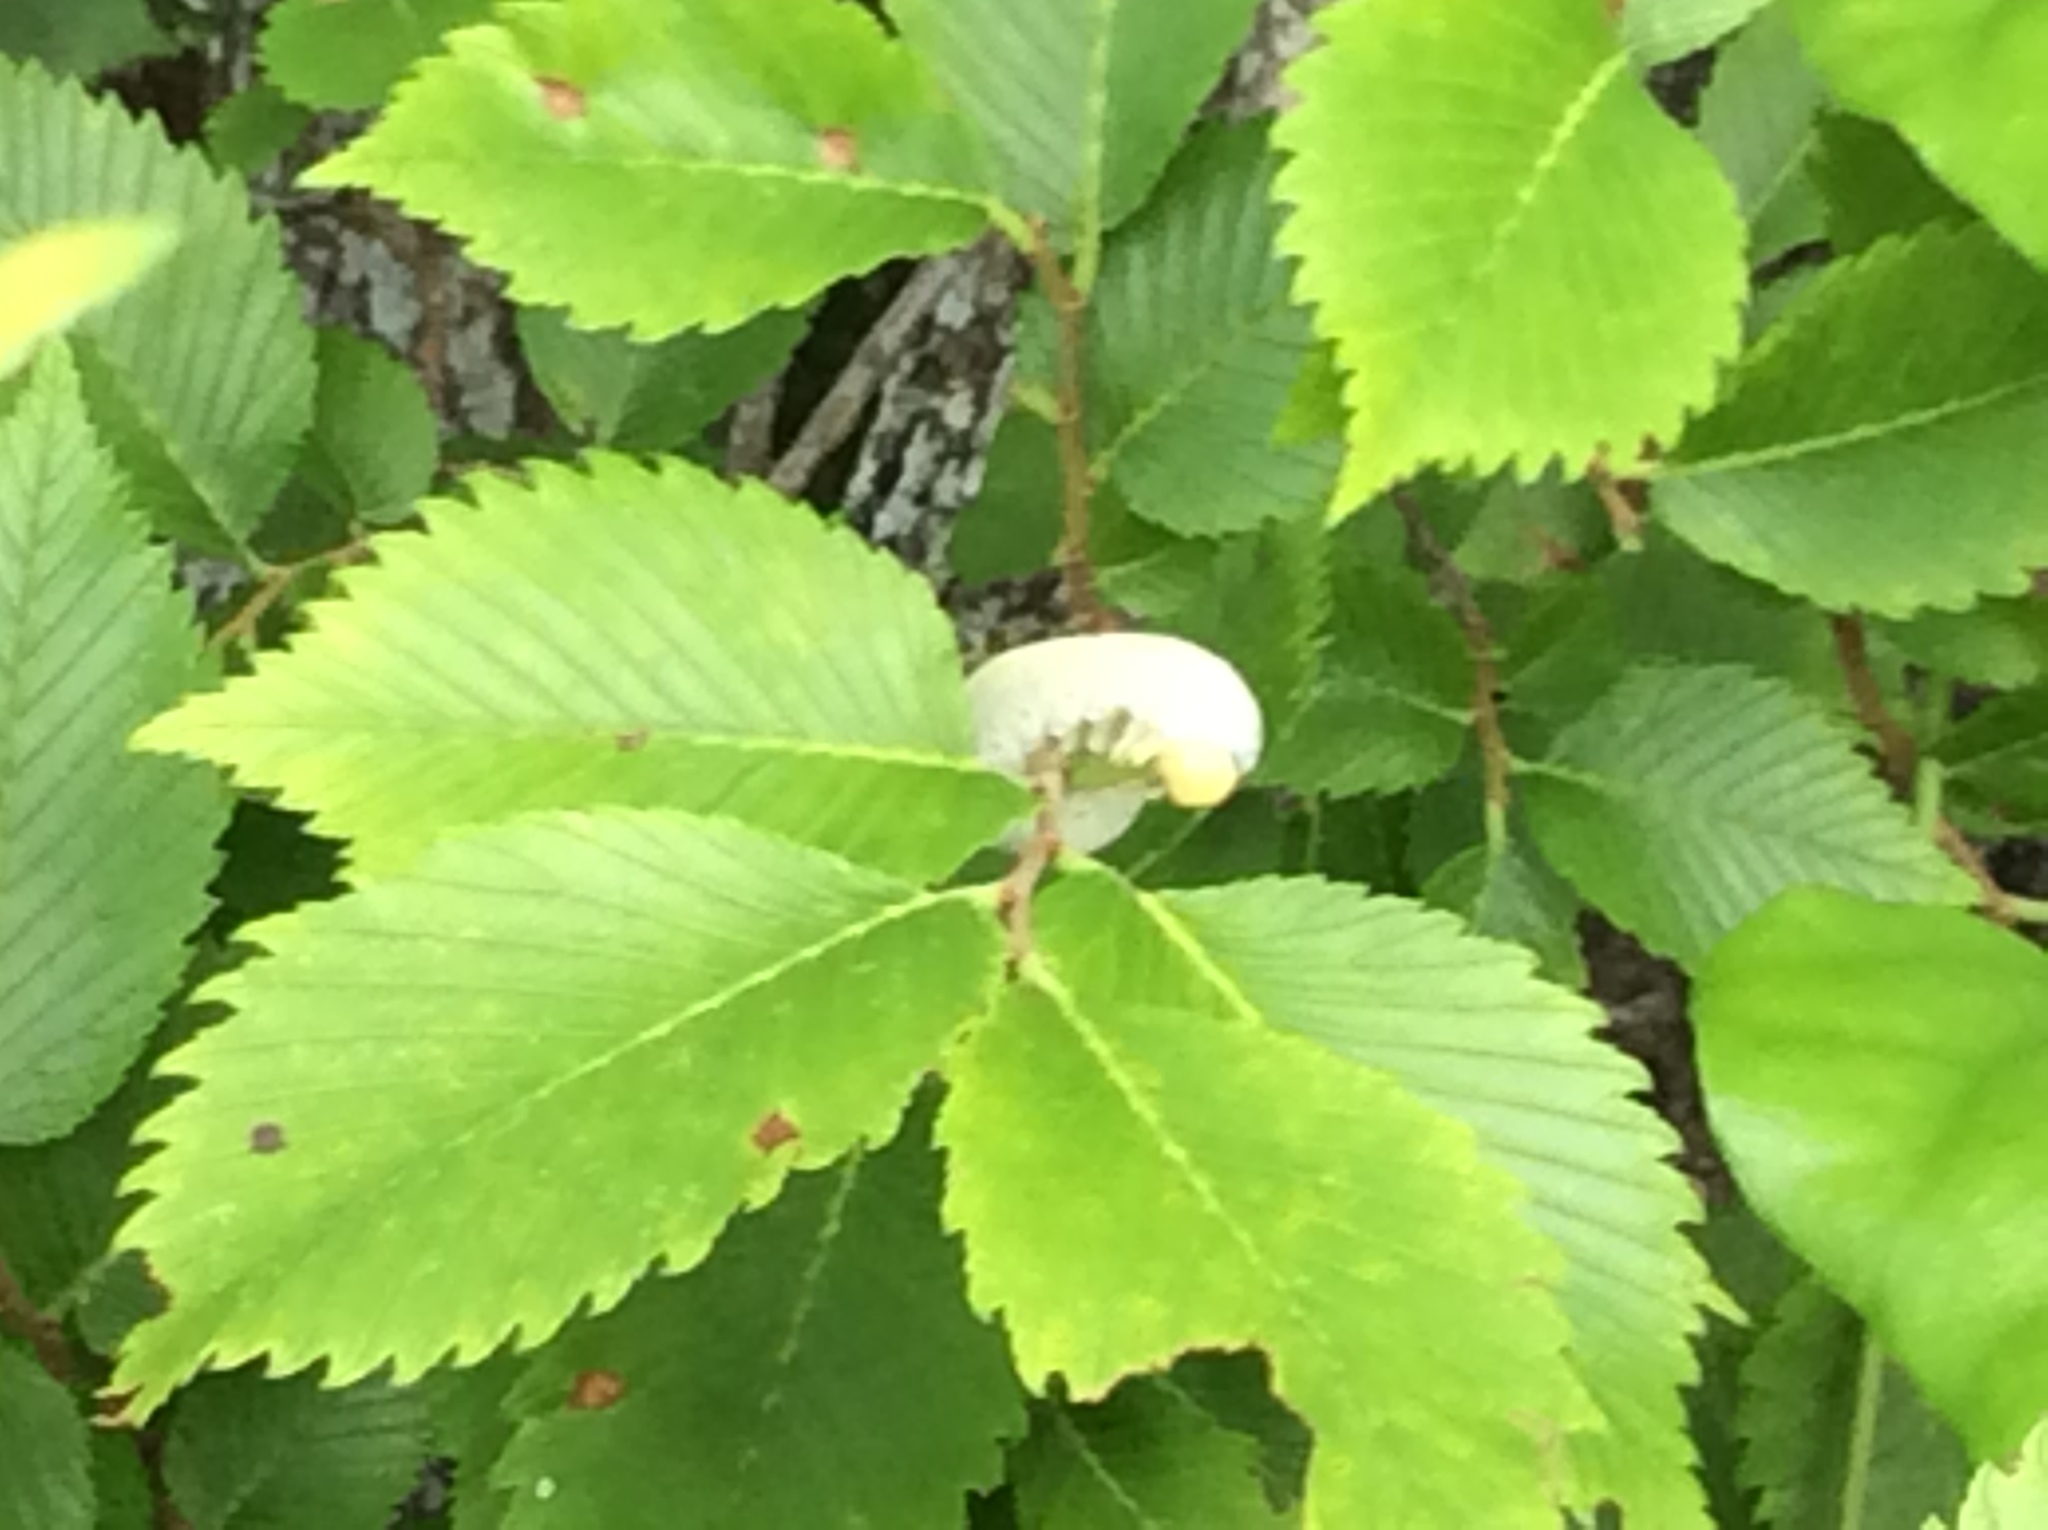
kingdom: Animalia
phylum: Arthropoda
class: Insecta
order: Hymenoptera
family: Cimbicidae
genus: Cimbex
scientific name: Cimbex americana
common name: Elm sawfly
